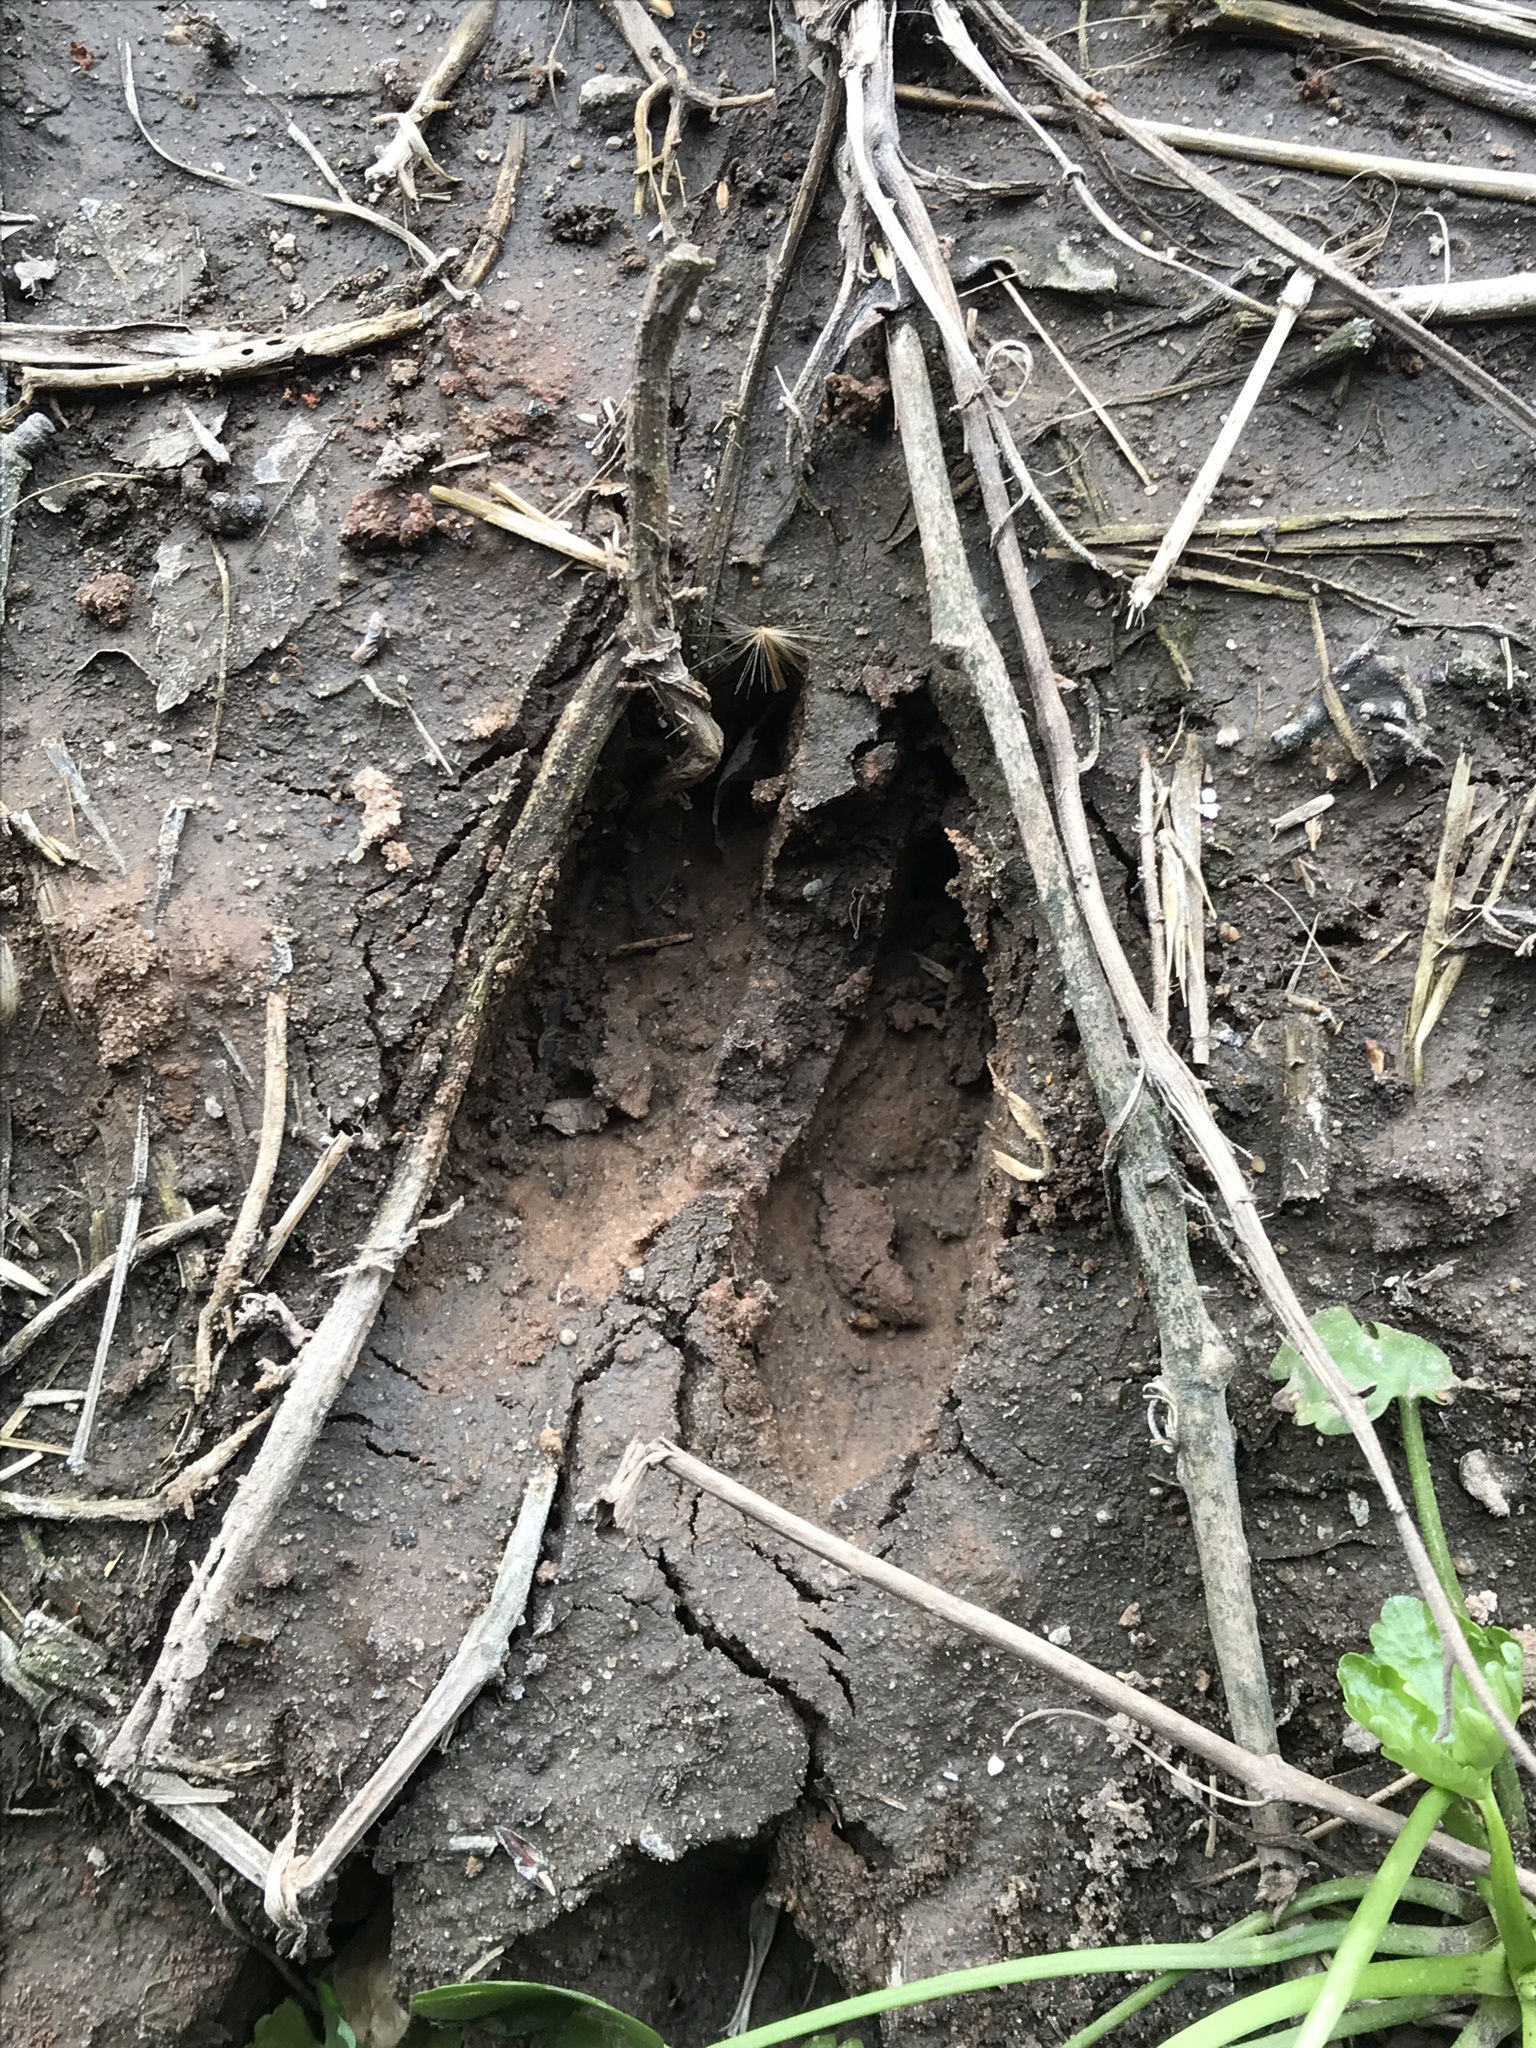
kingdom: Animalia
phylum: Chordata
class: Mammalia
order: Artiodactyla
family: Cervidae
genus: Odocoileus
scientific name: Odocoileus virginianus
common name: White-tailed deer
